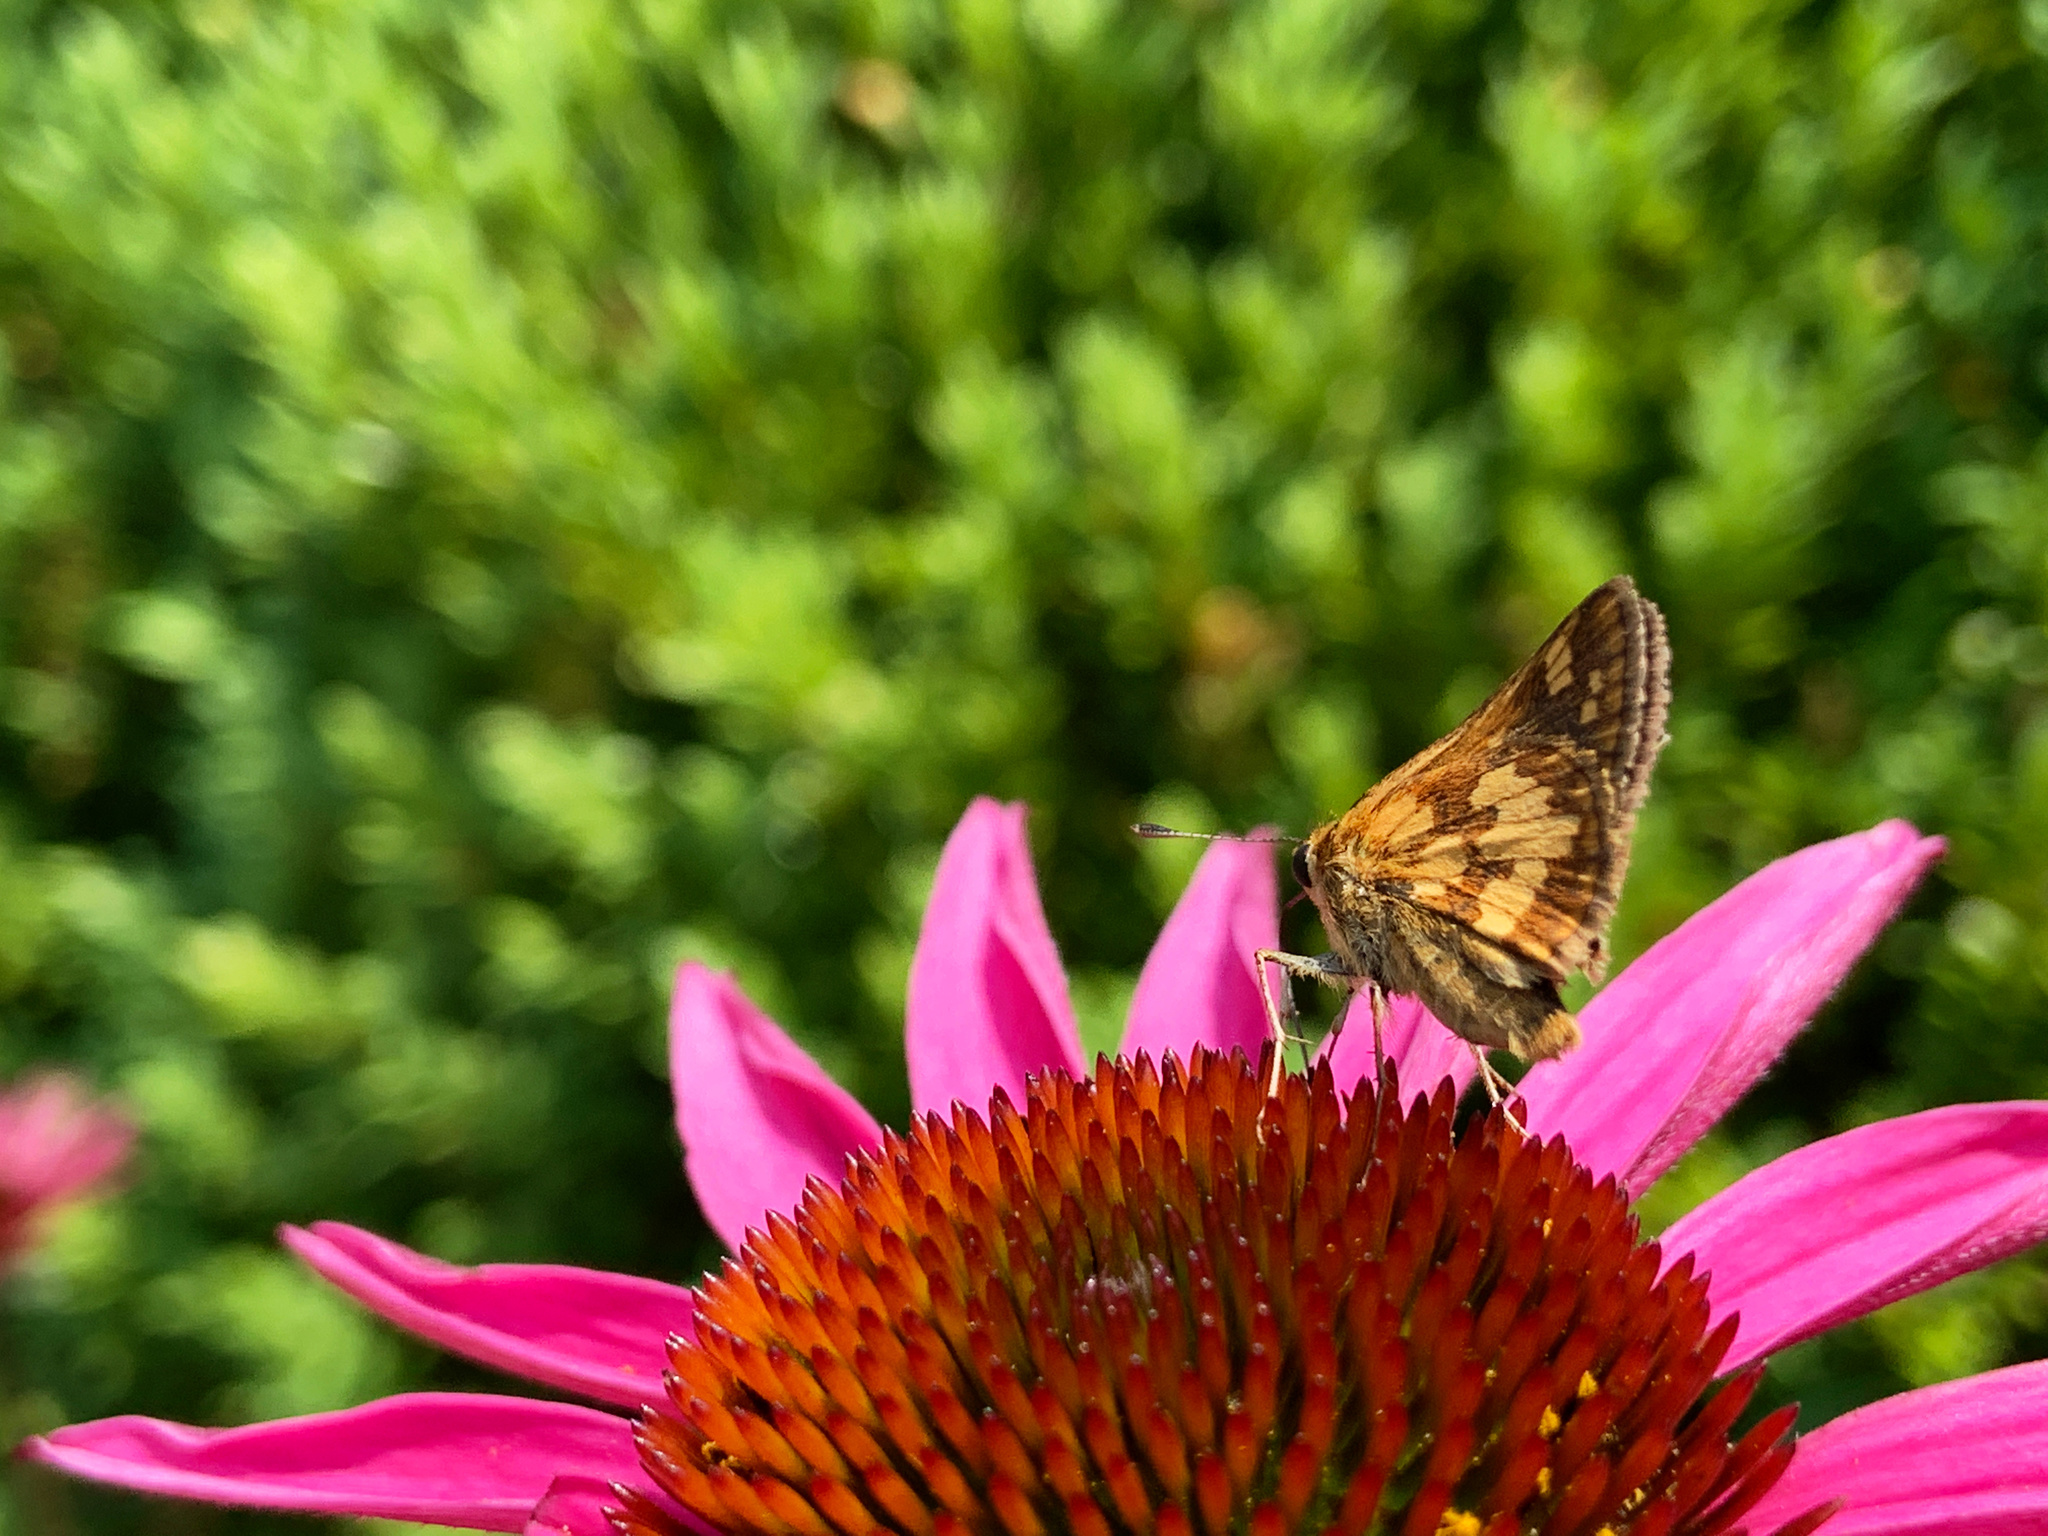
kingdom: Animalia
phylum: Arthropoda
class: Insecta
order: Lepidoptera
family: Hesperiidae
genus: Polites
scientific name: Polites coras
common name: Peck's skipper
